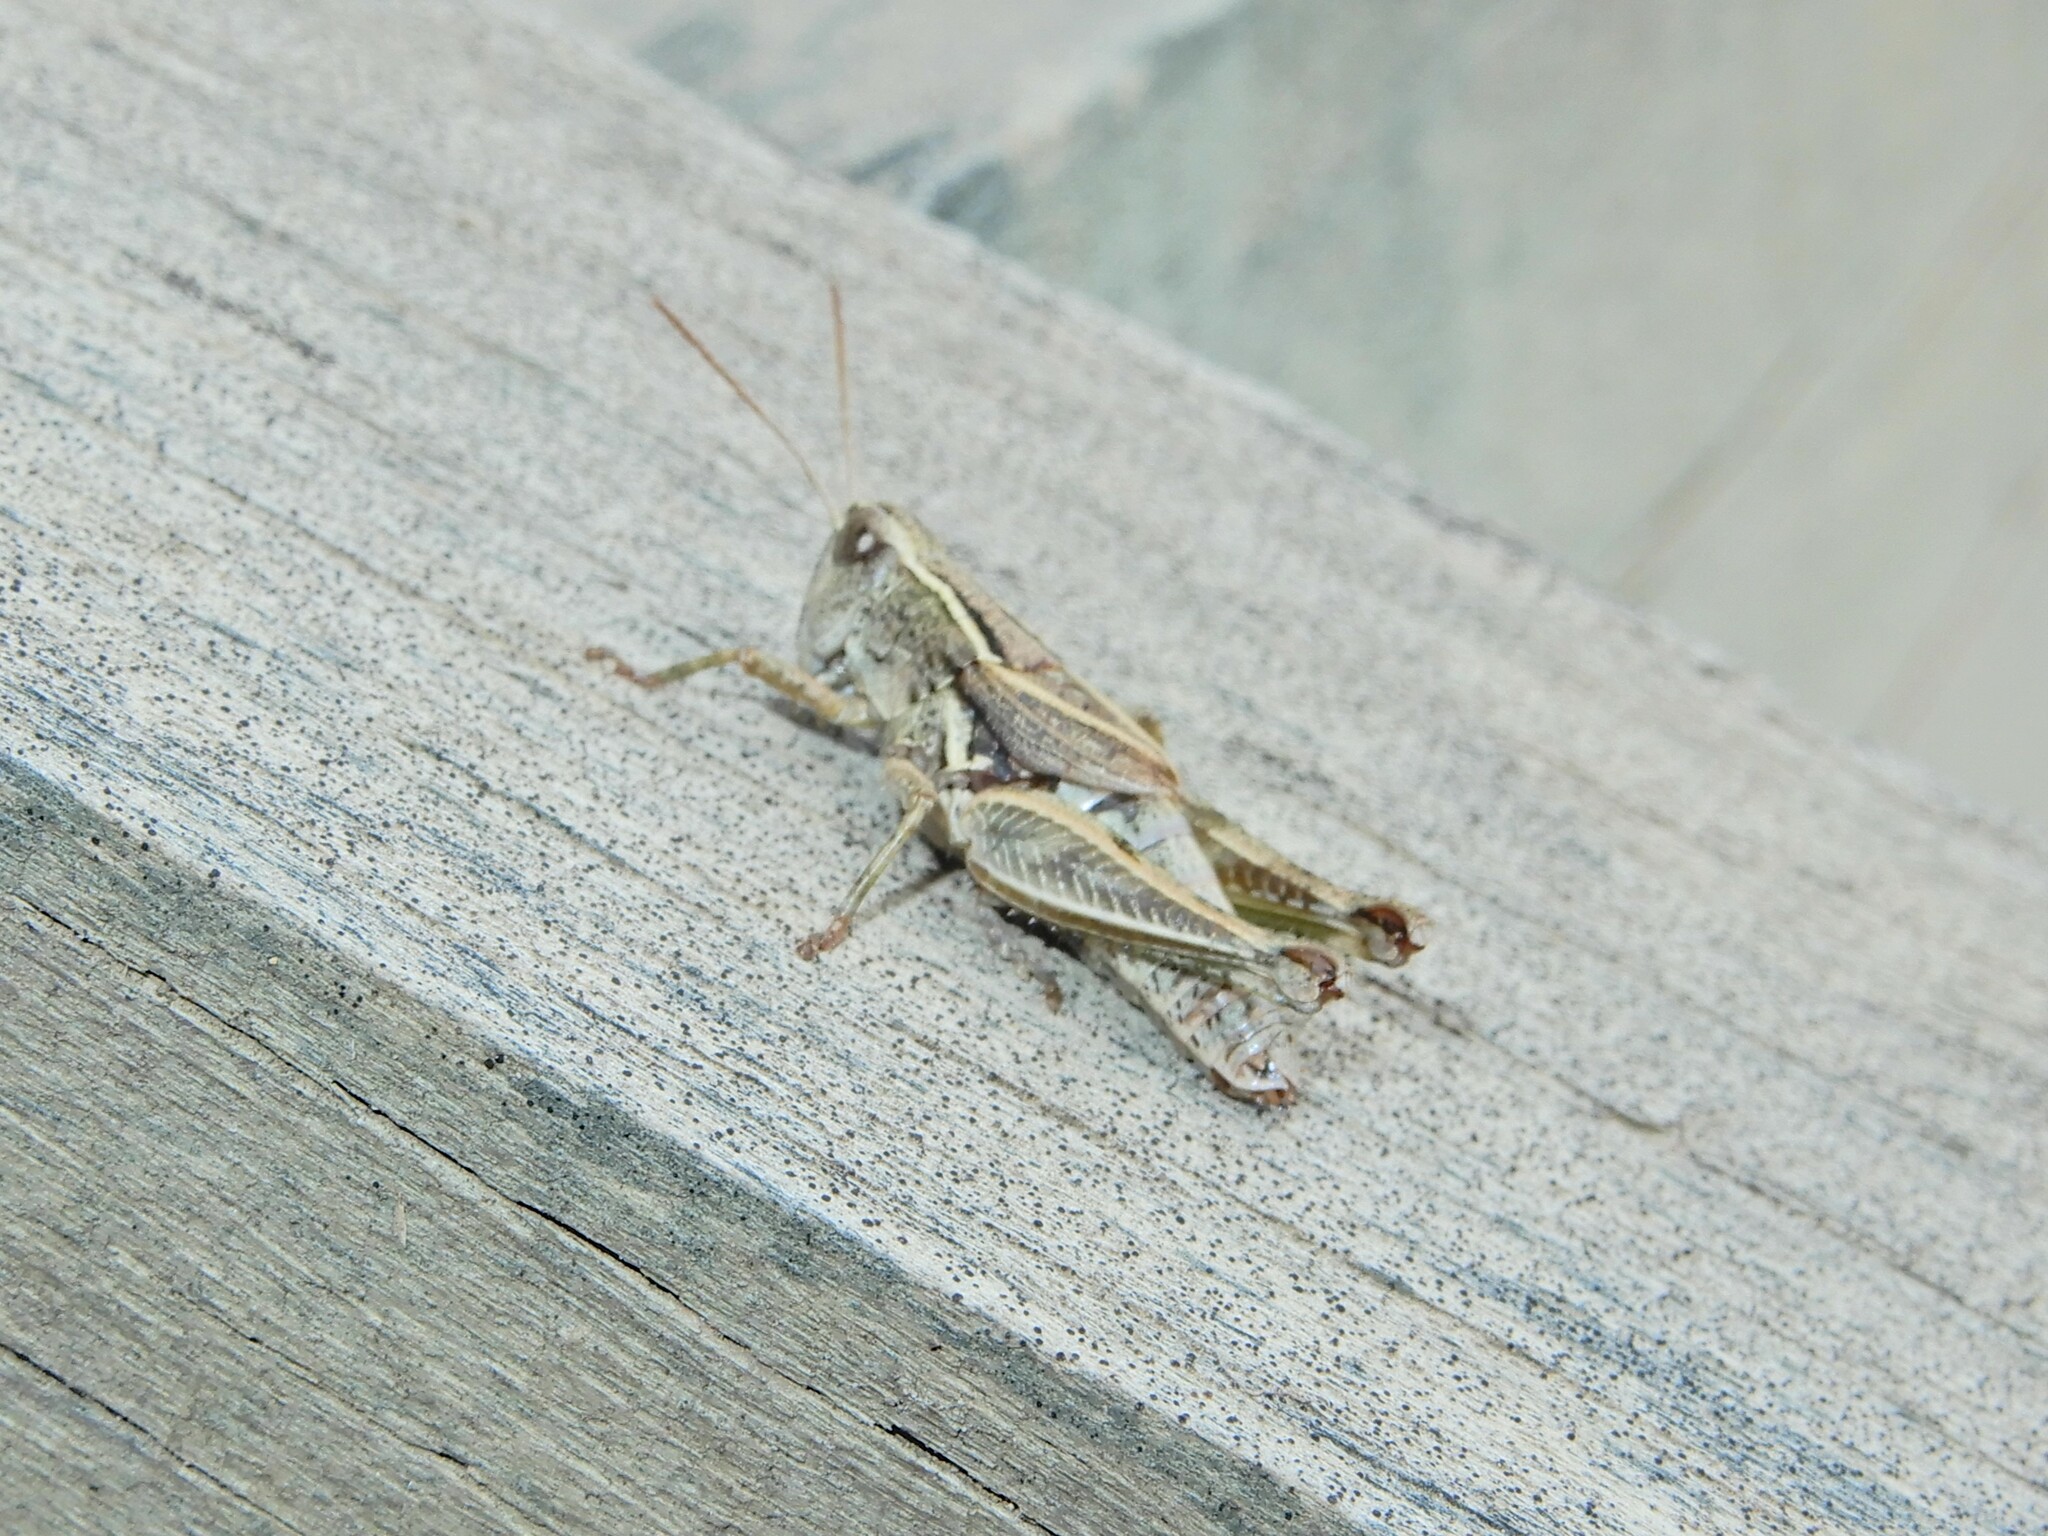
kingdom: Animalia
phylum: Arthropoda
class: Insecta
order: Orthoptera
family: Acrididae
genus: Phaulacridium
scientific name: Phaulacridium marginale
